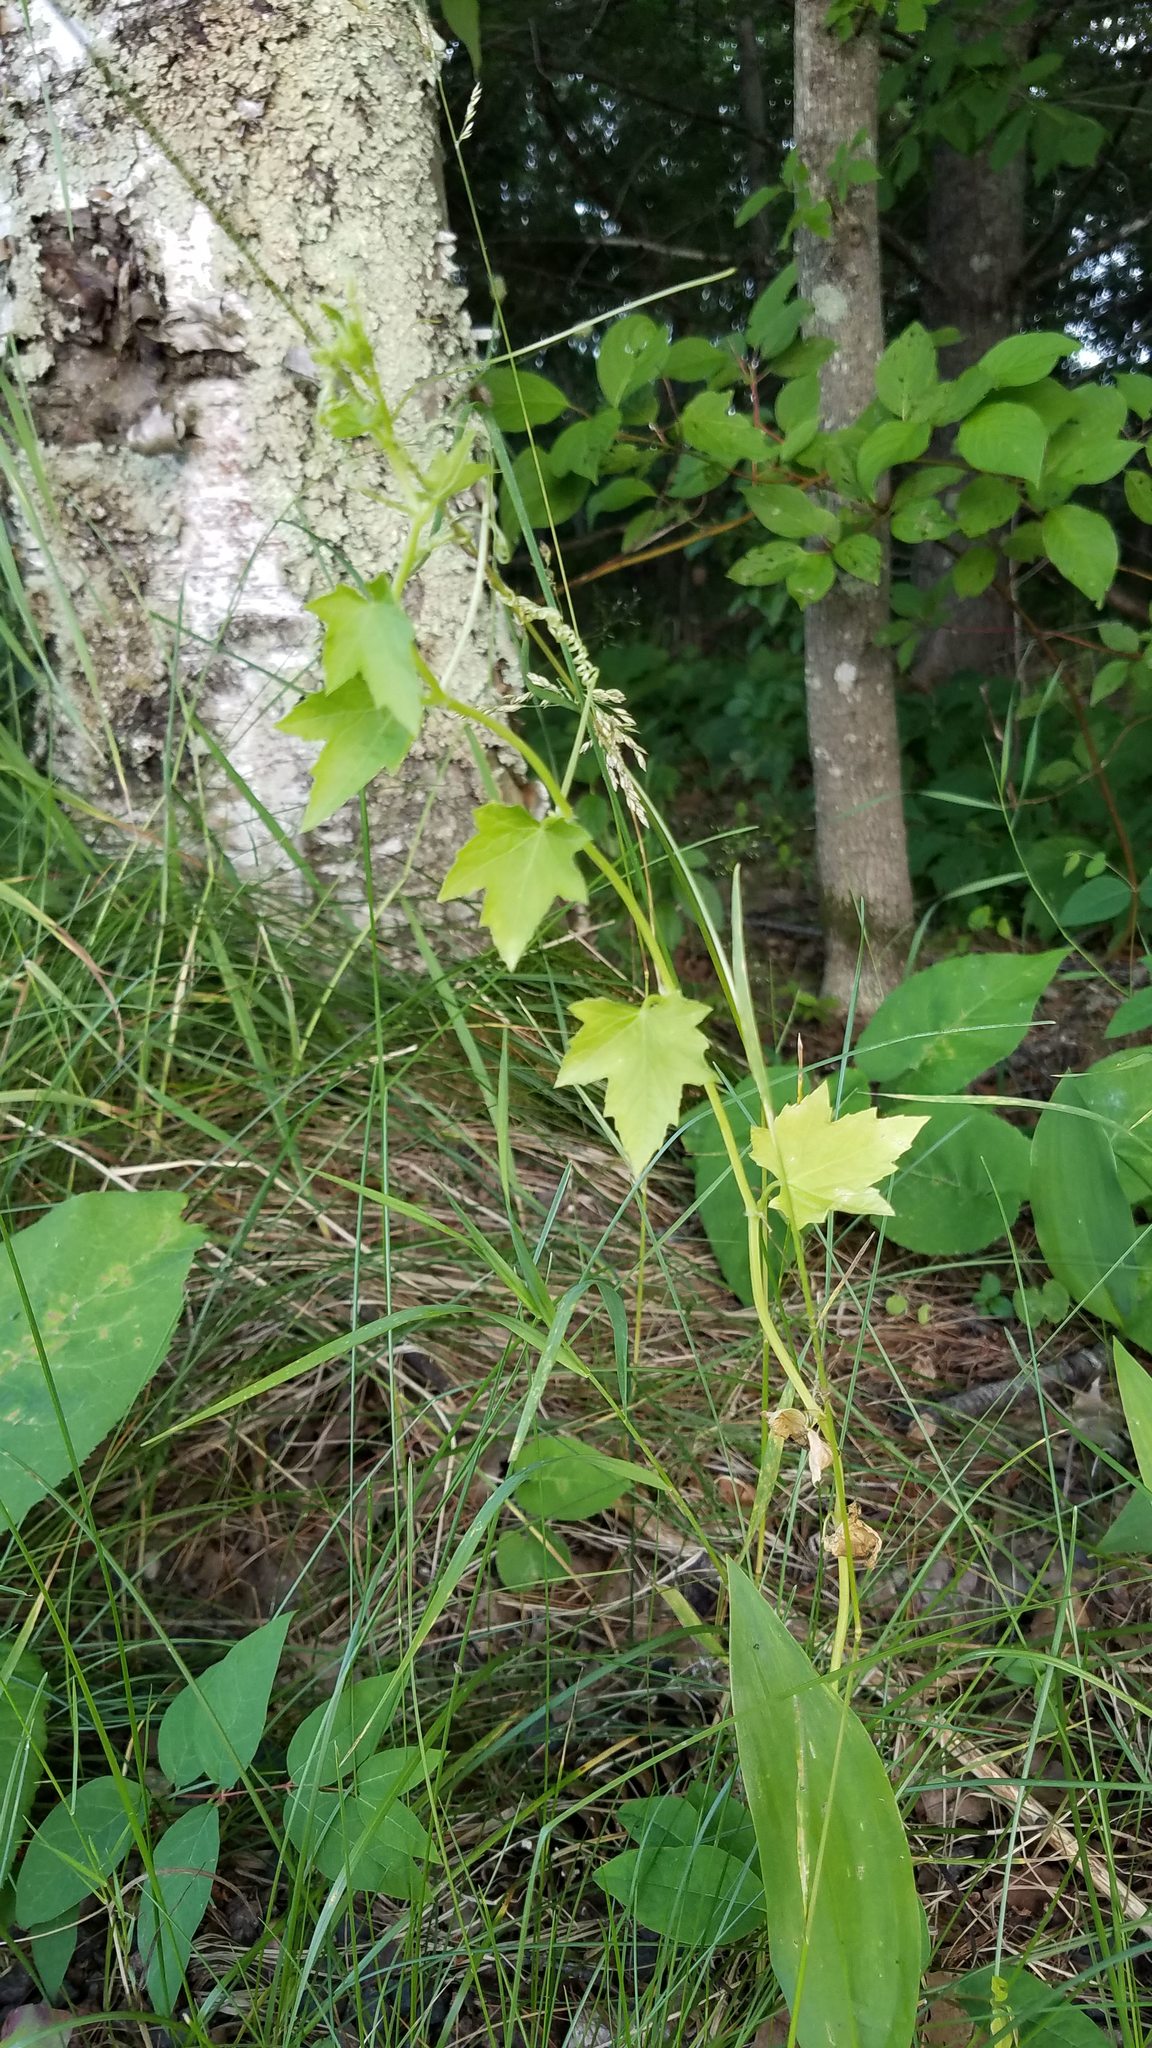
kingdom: Plantae
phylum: Tracheophyta
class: Magnoliopsida
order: Cucurbitales
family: Cucurbitaceae
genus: Echinocystis
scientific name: Echinocystis lobata
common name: Wild cucumber
